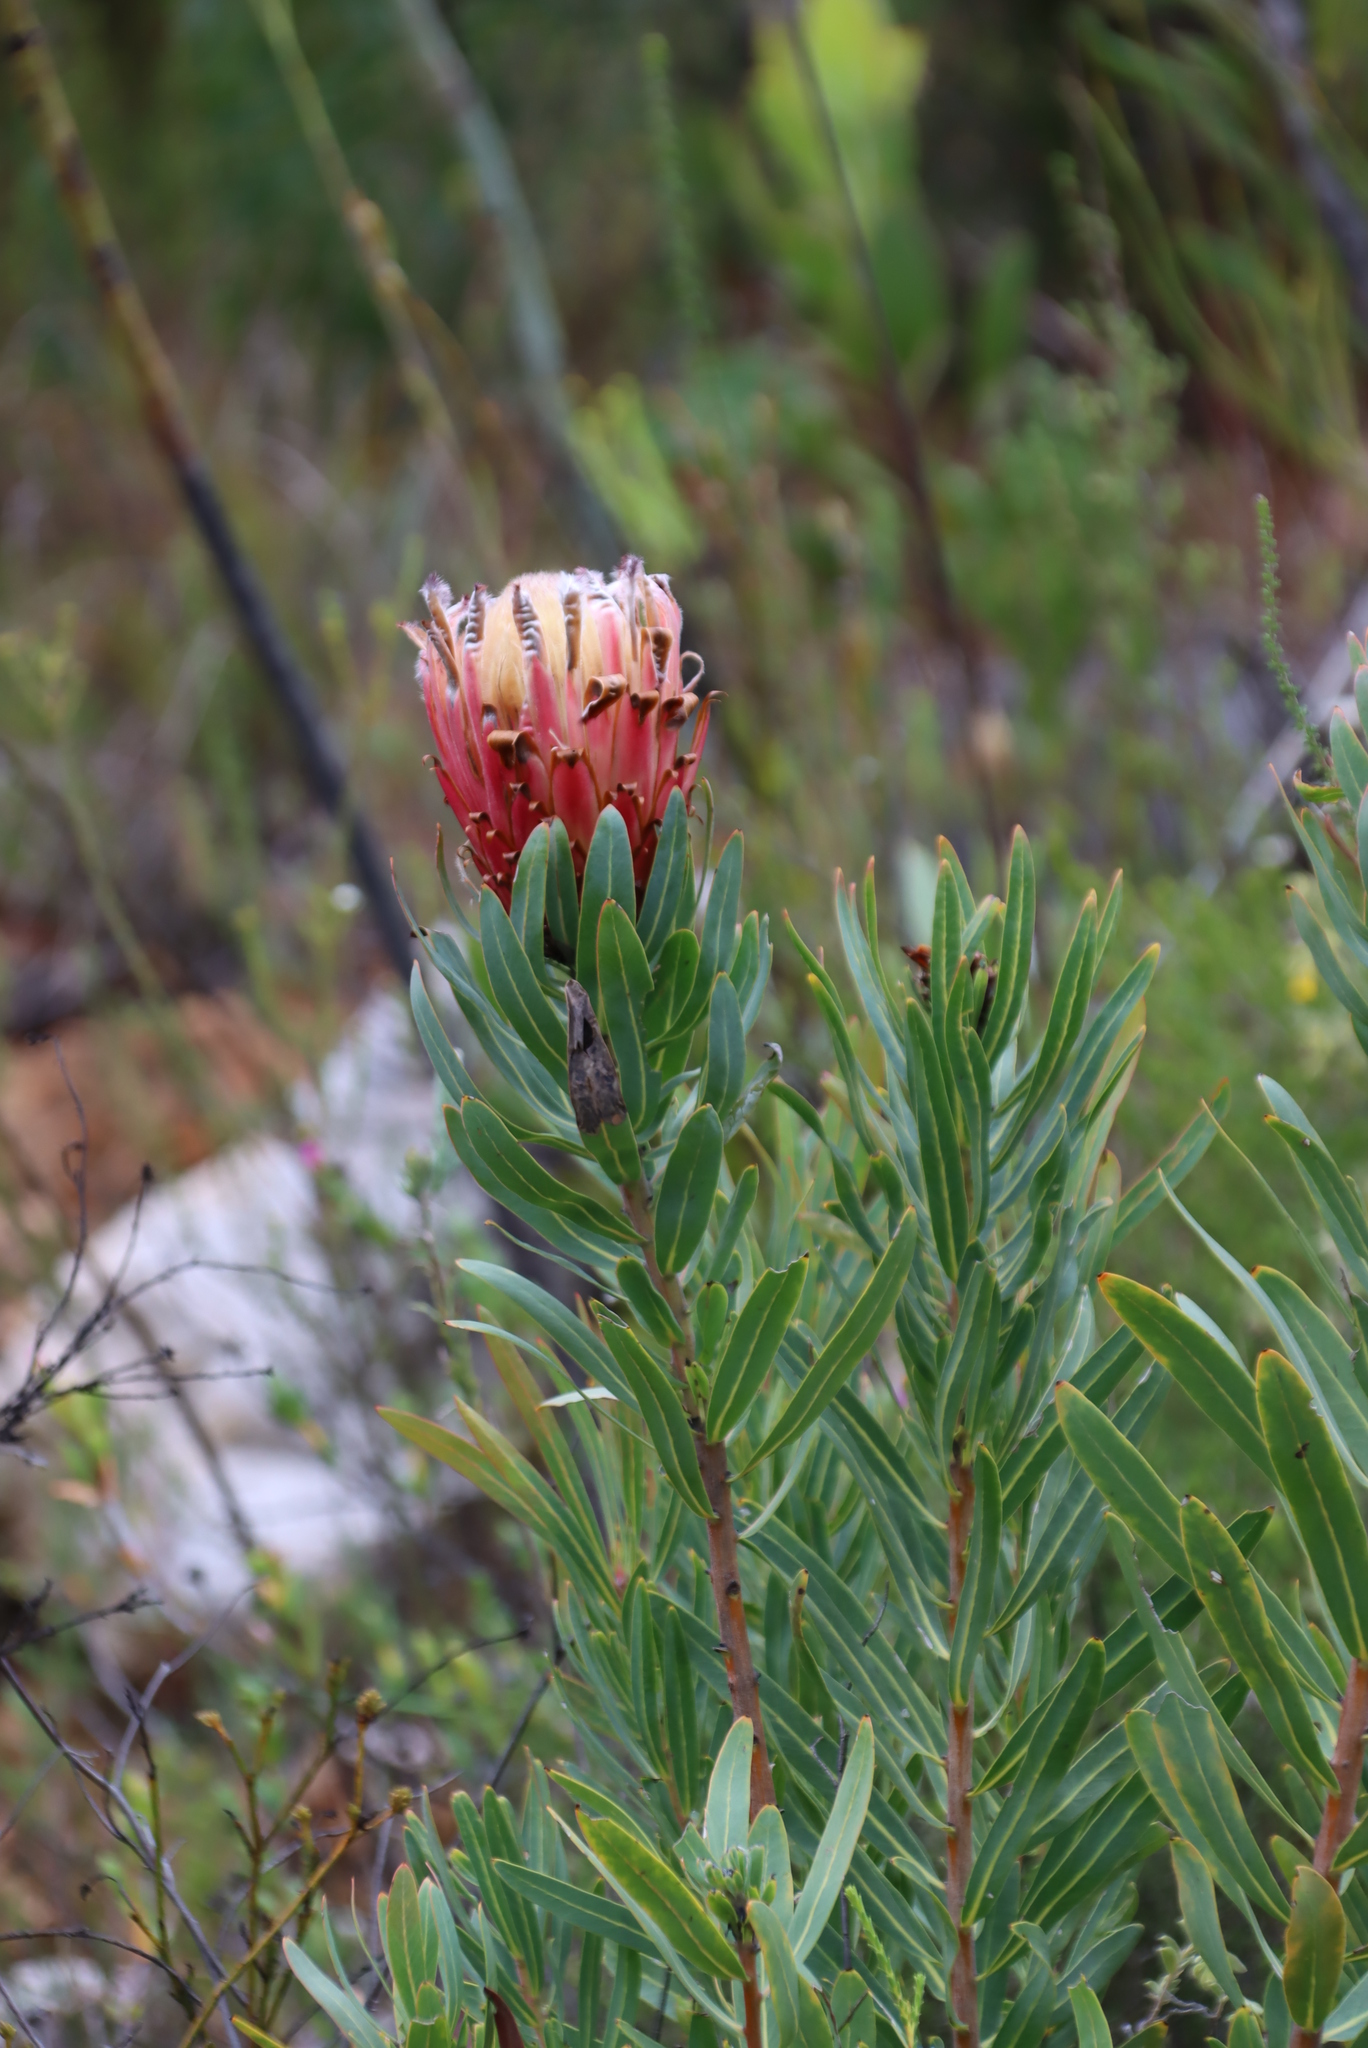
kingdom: Plantae
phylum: Tracheophyta
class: Magnoliopsida
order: Proteales
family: Proteaceae
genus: Protea
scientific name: Protea neriifolia
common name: Blue sugarbush
